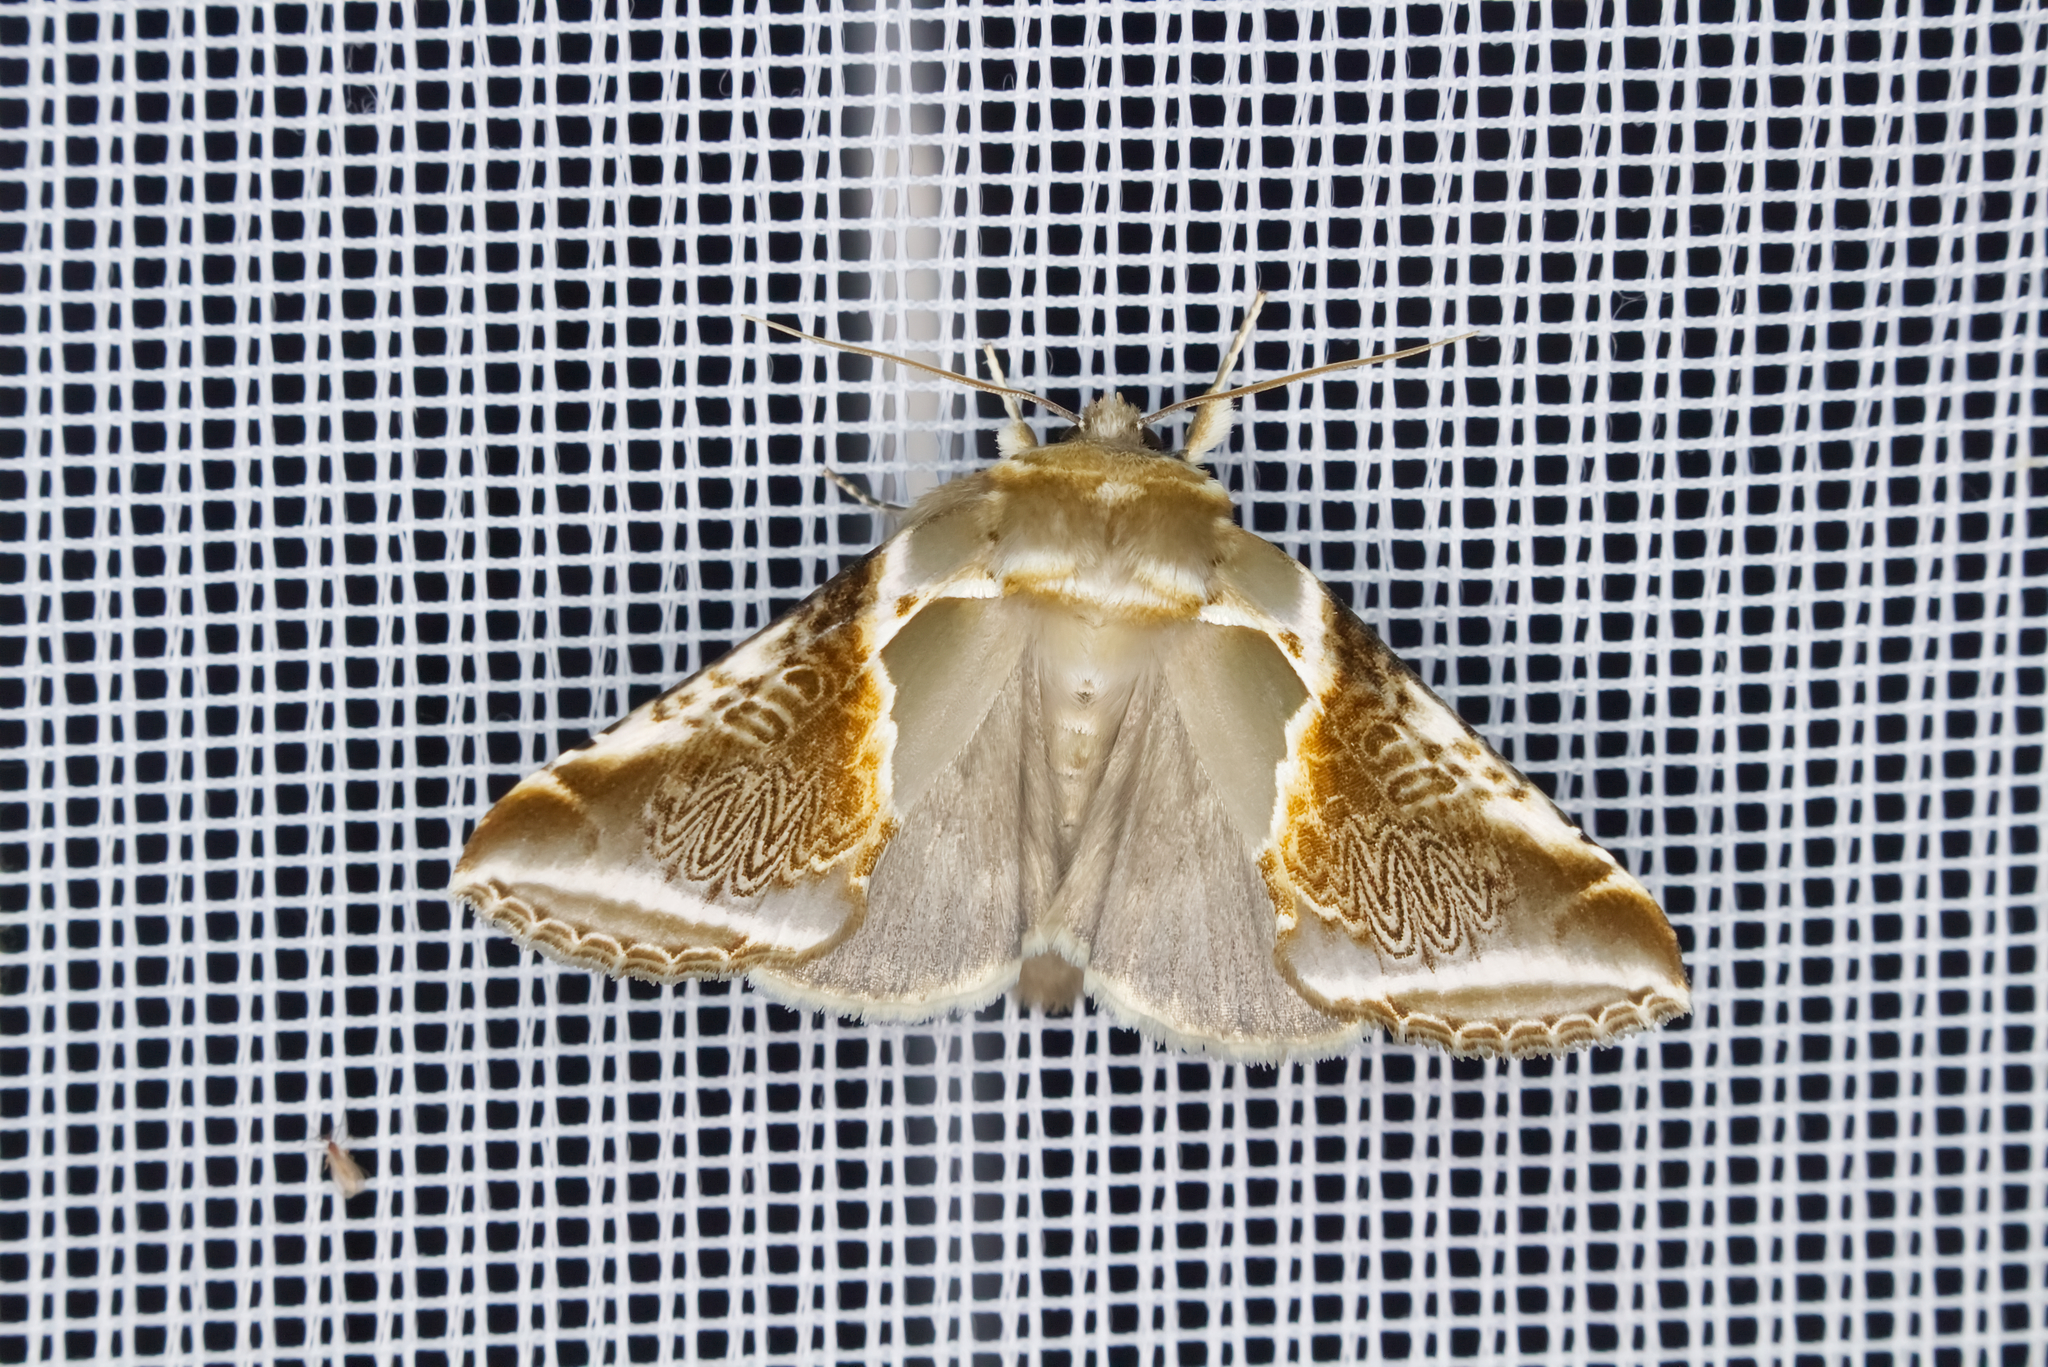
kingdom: Animalia
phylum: Arthropoda
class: Insecta
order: Lepidoptera
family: Drepanidae
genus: Habrosyne
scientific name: Habrosyne pyritoides
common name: Buff arches
